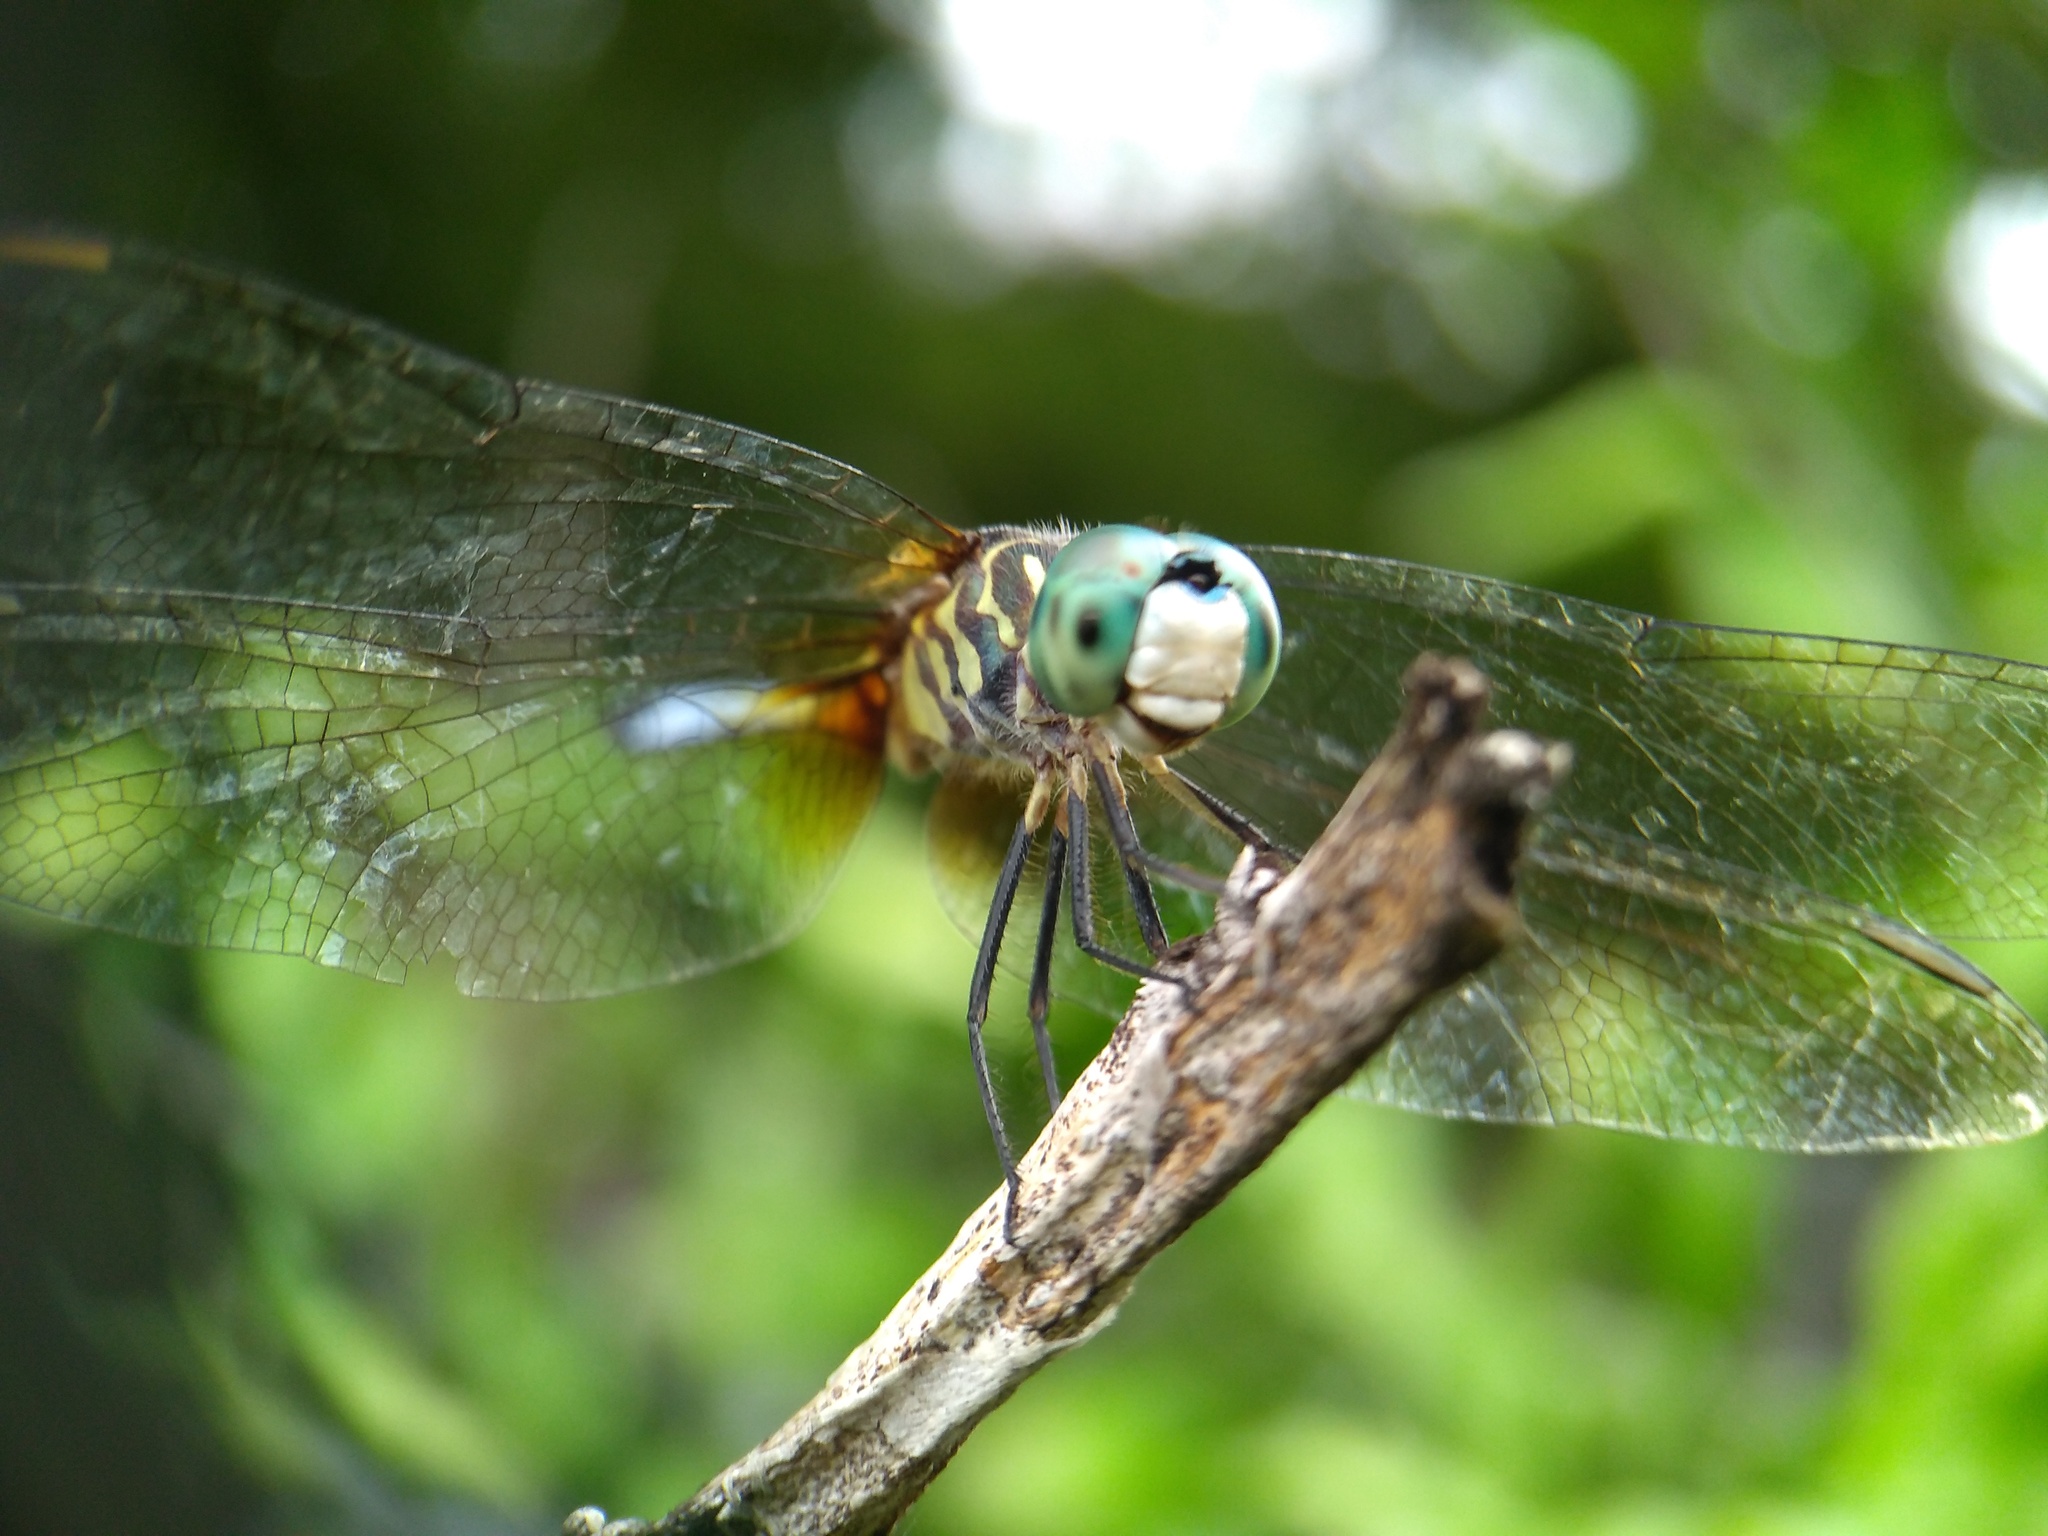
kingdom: Animalia
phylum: Arthropoda
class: Insecta
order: Odonata
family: Libellulidae
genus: Pachydiplax
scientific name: Pachydiplax longipennis
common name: Blue dasher
